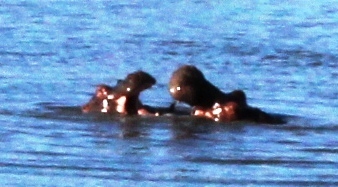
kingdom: Animalia
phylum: Chordata
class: Mammalia
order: Artiodactyla
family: Hippopotamidae
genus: Hippopotamus
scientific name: Hippopotamus amphibius
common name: Common hippopotamus
